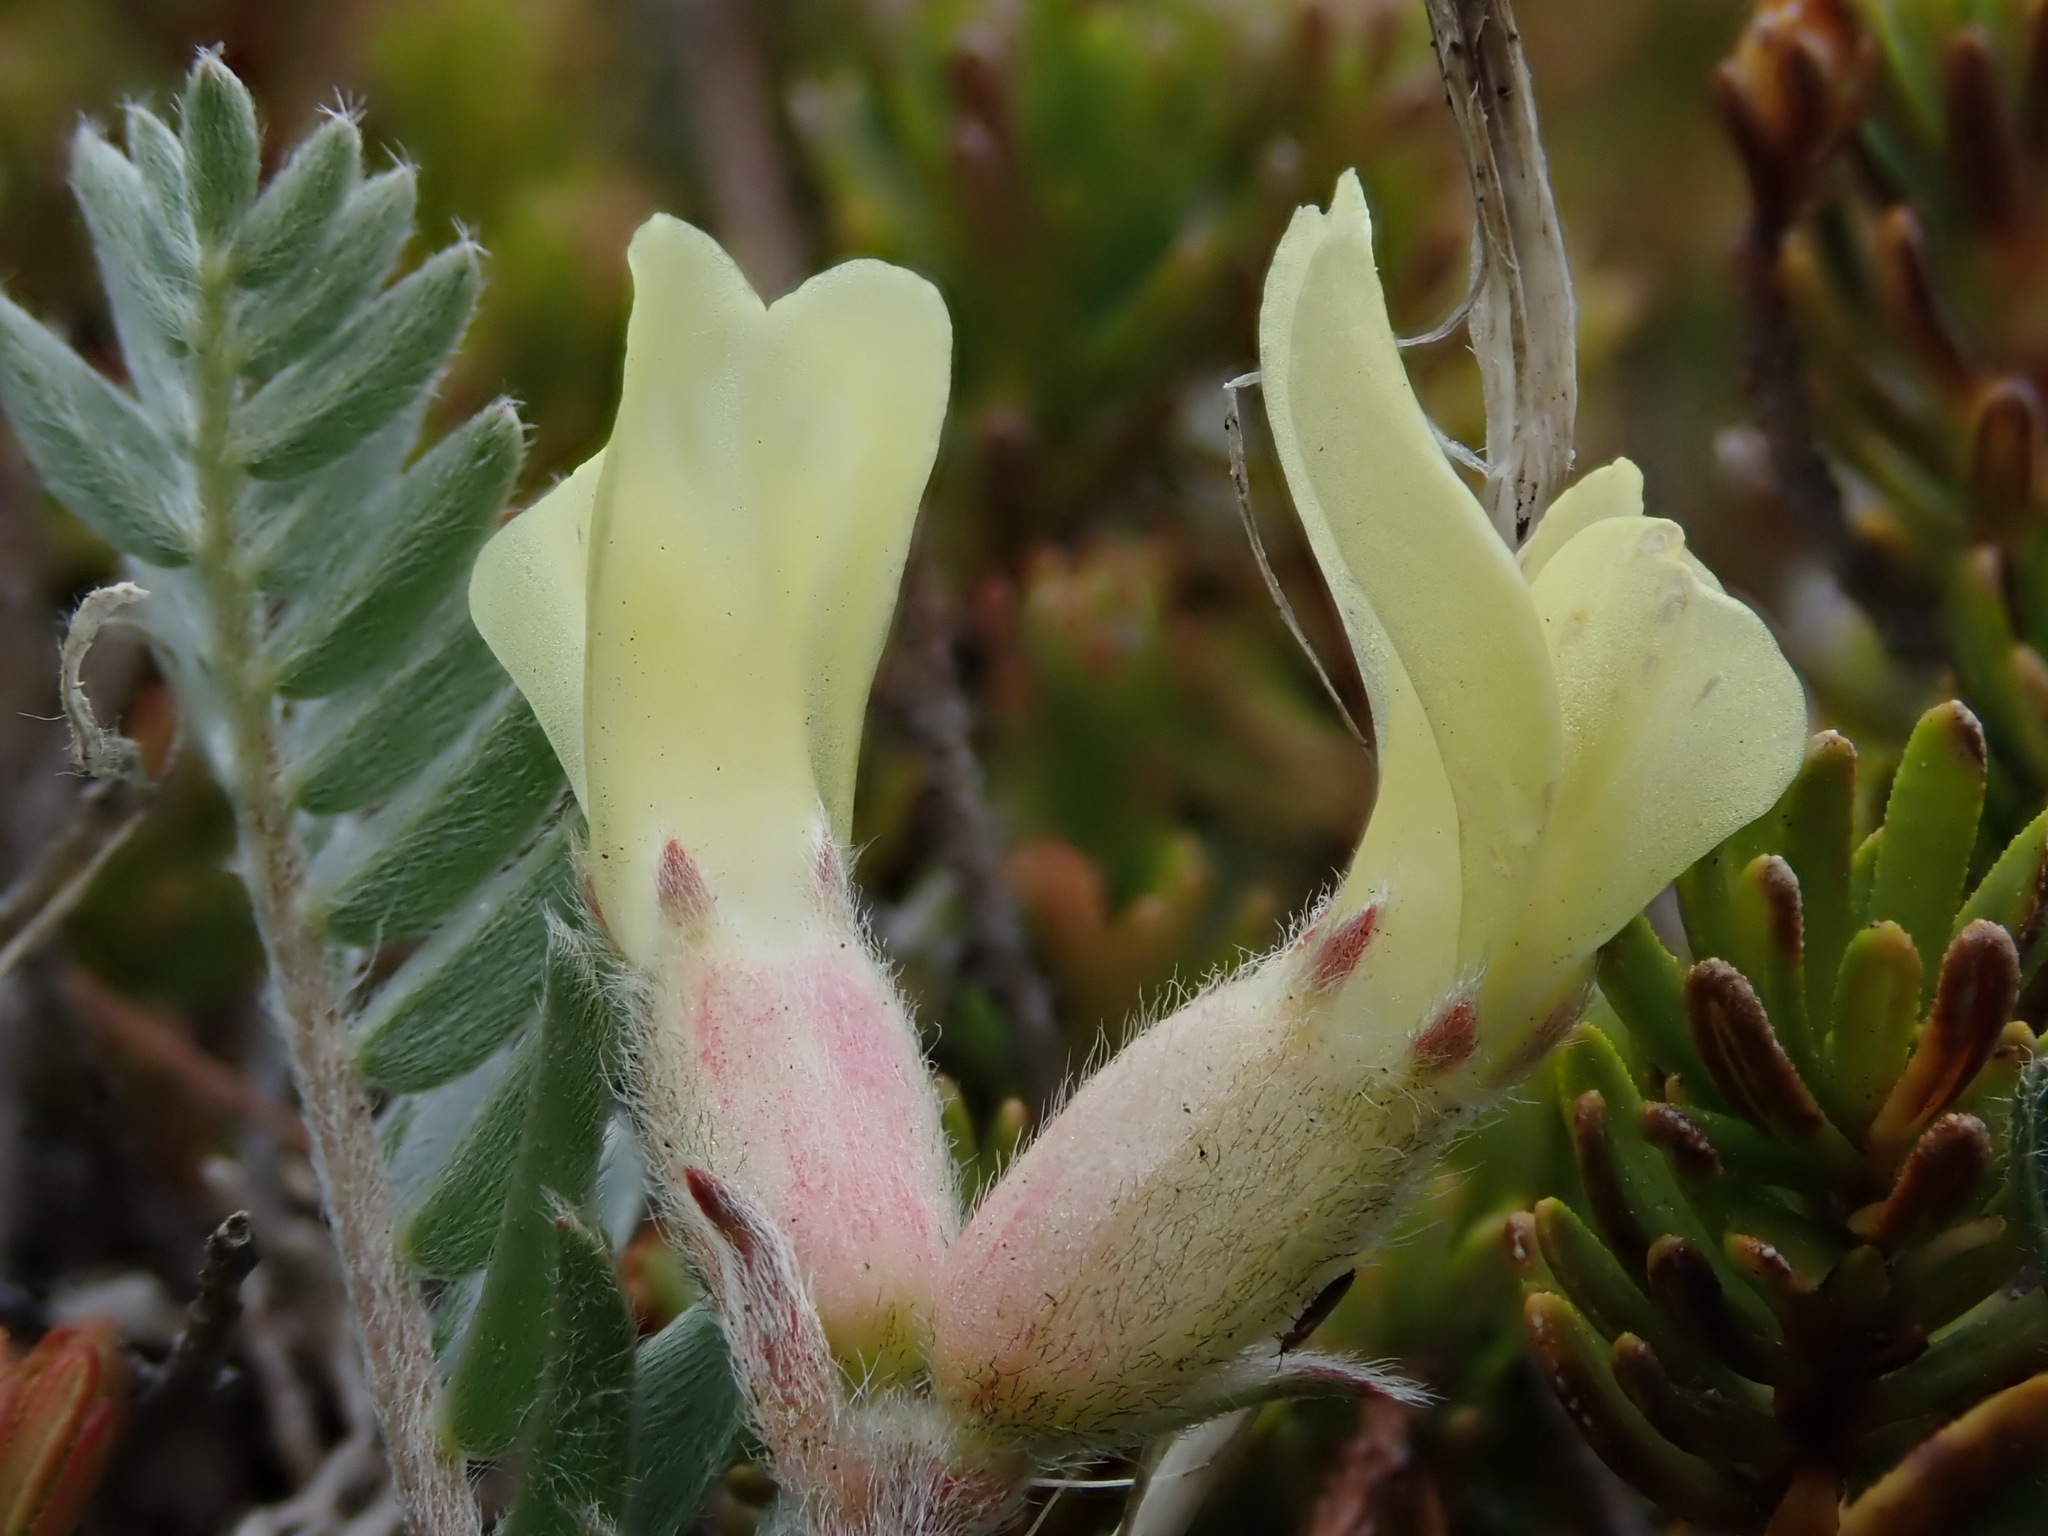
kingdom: Plantae
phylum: Tracheophyta
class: Magnoliopsida
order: Fabales
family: Fabaceae
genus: Oxytropis
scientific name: Oxytropis campestris
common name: Field locoweed
